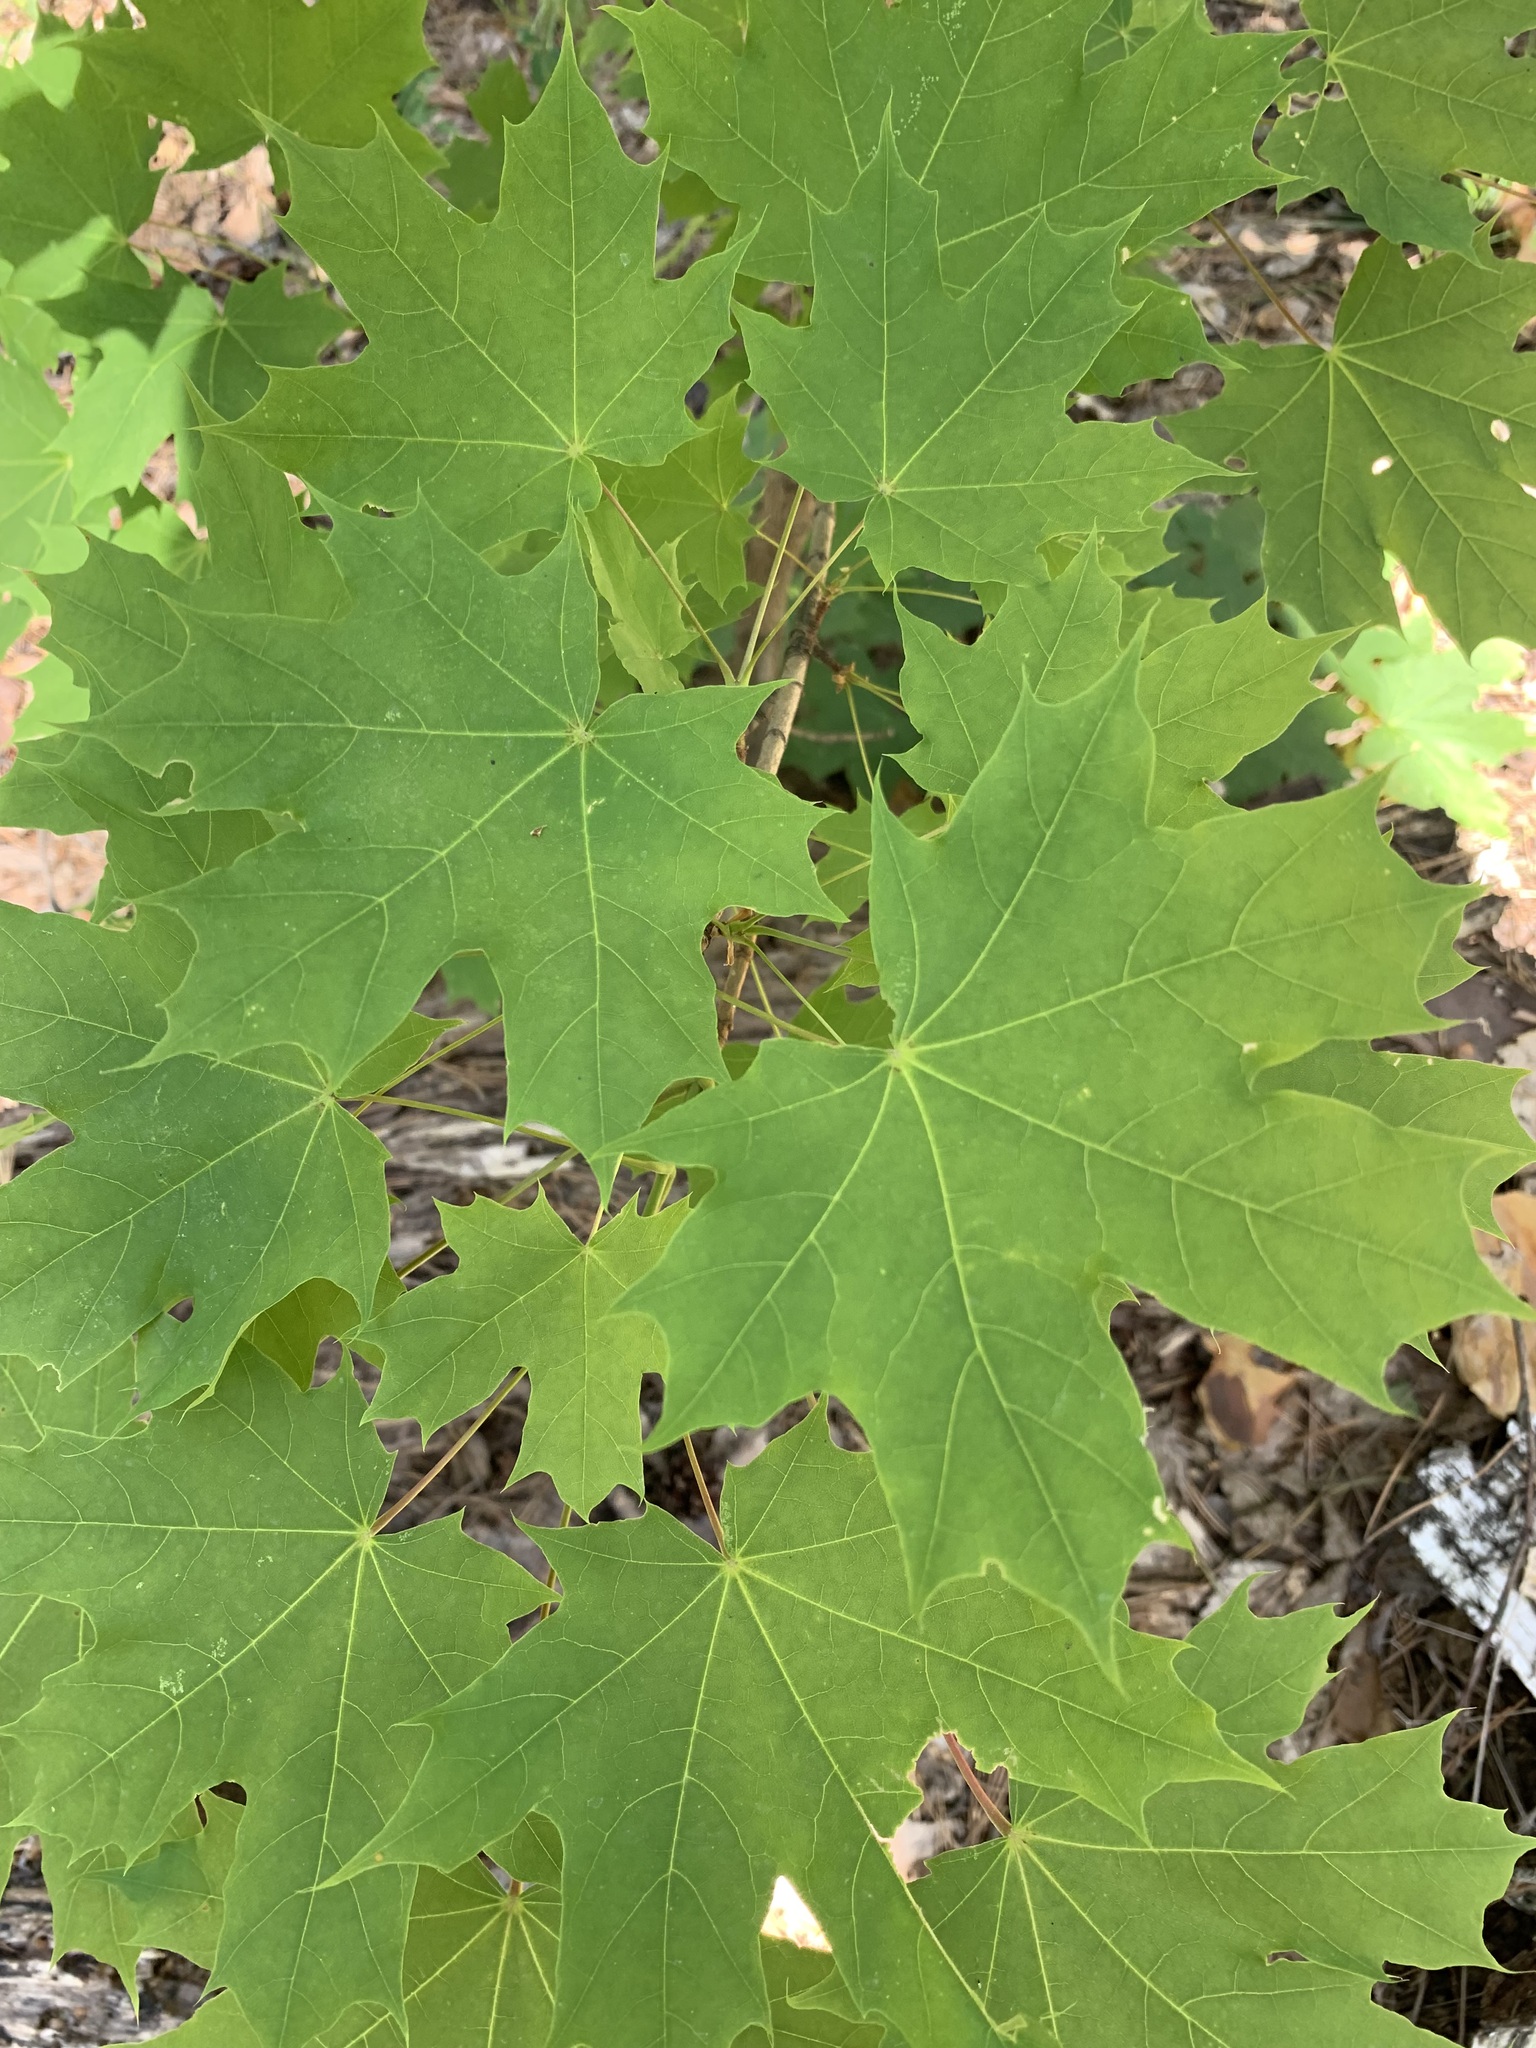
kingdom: Plantae
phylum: Tracheophyta
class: Magnoliopsida
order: Sapindales
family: Sapindaceae
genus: Acer
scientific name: Acer platanoides
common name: Norway maple
